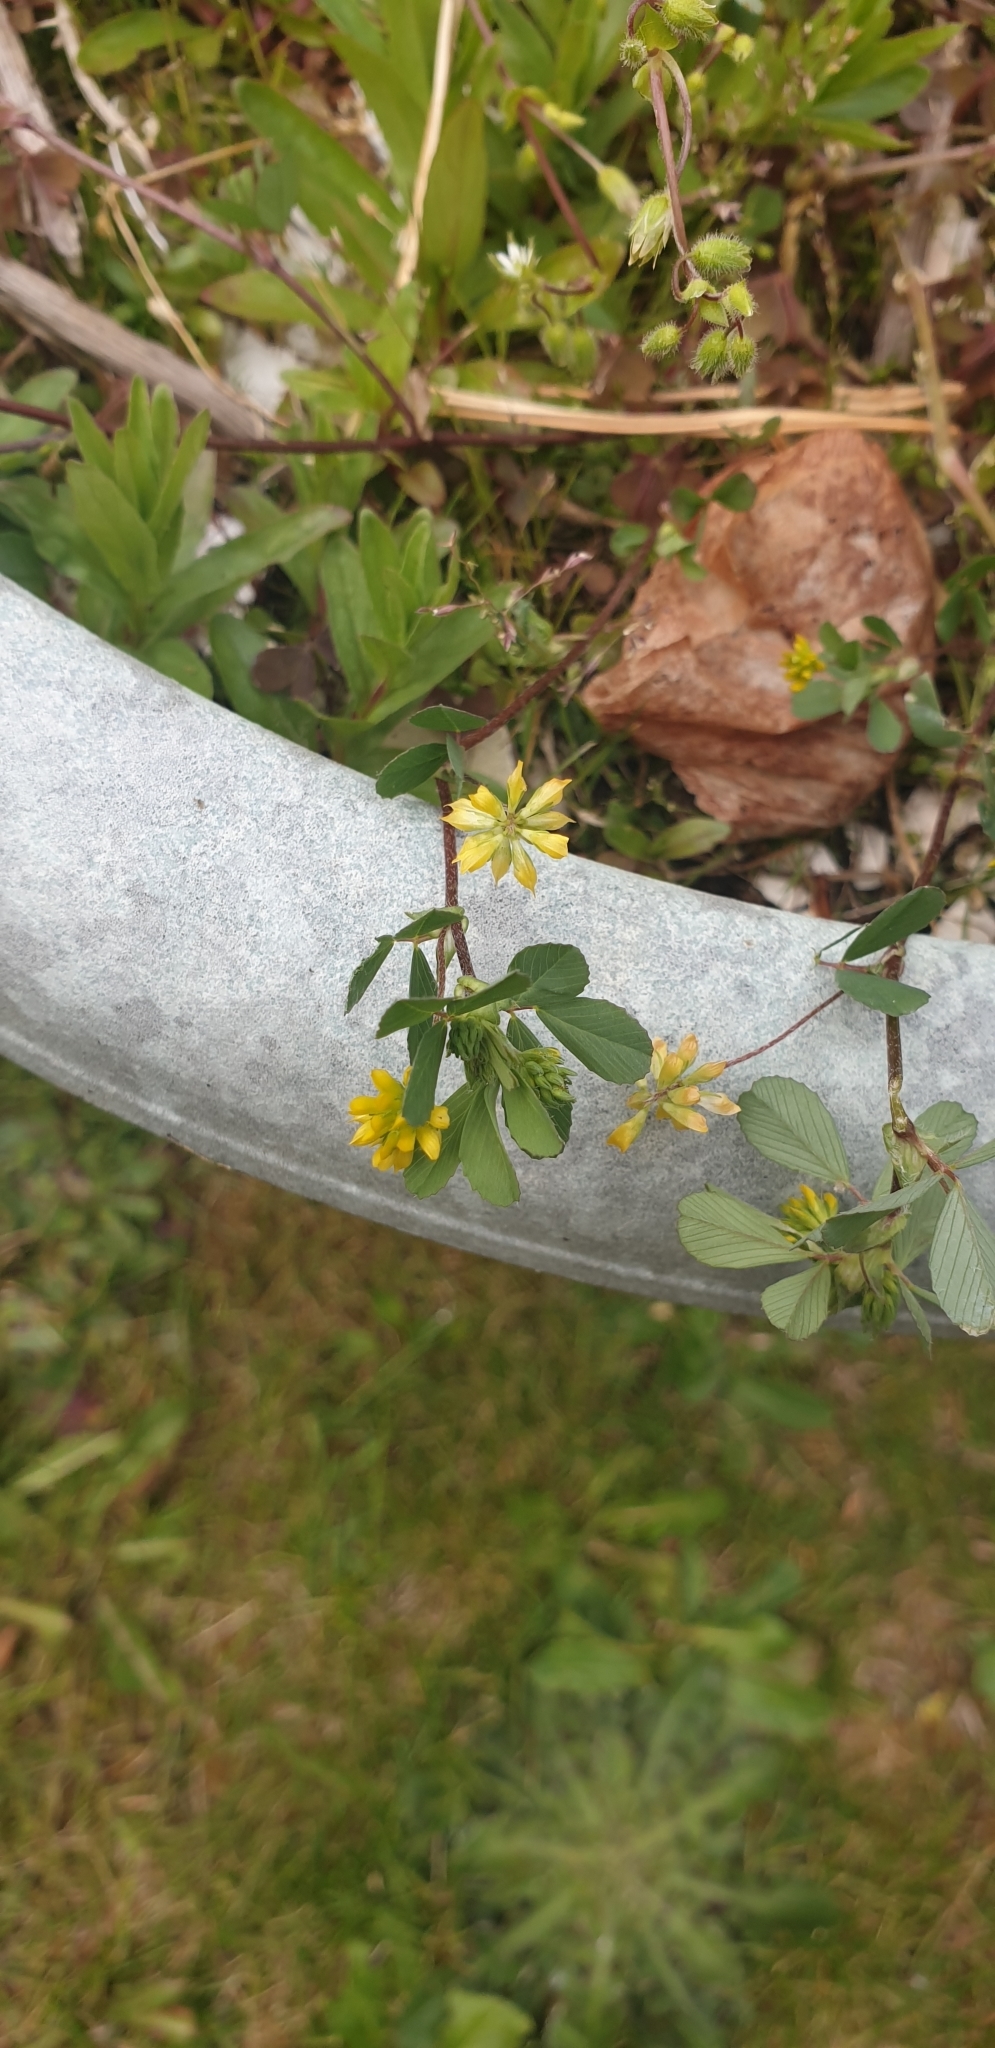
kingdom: Plantae
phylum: Tracheophyta
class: Magnoliopsida
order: Fabales
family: Fabaceae
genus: Trifolium
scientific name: Trifolium dubium
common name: Suckling clover
